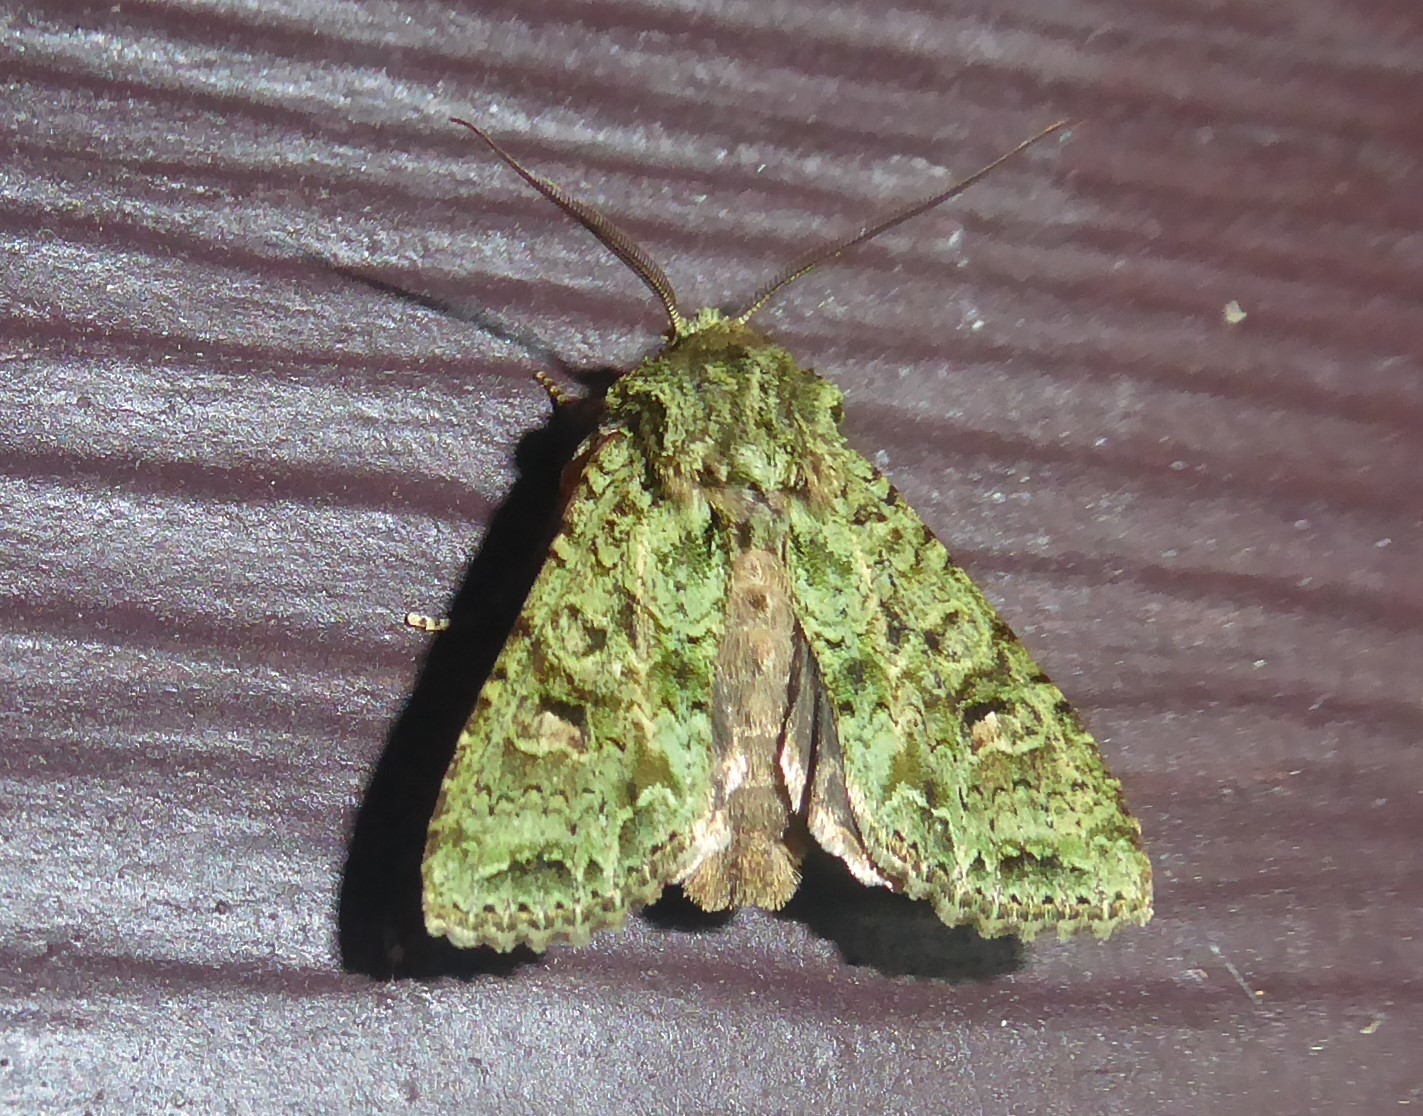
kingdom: Animalia
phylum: Arthropoda
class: Insecta
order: Lepidoptera
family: Noctuidae
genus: Ichneutica
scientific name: Ichneutica
